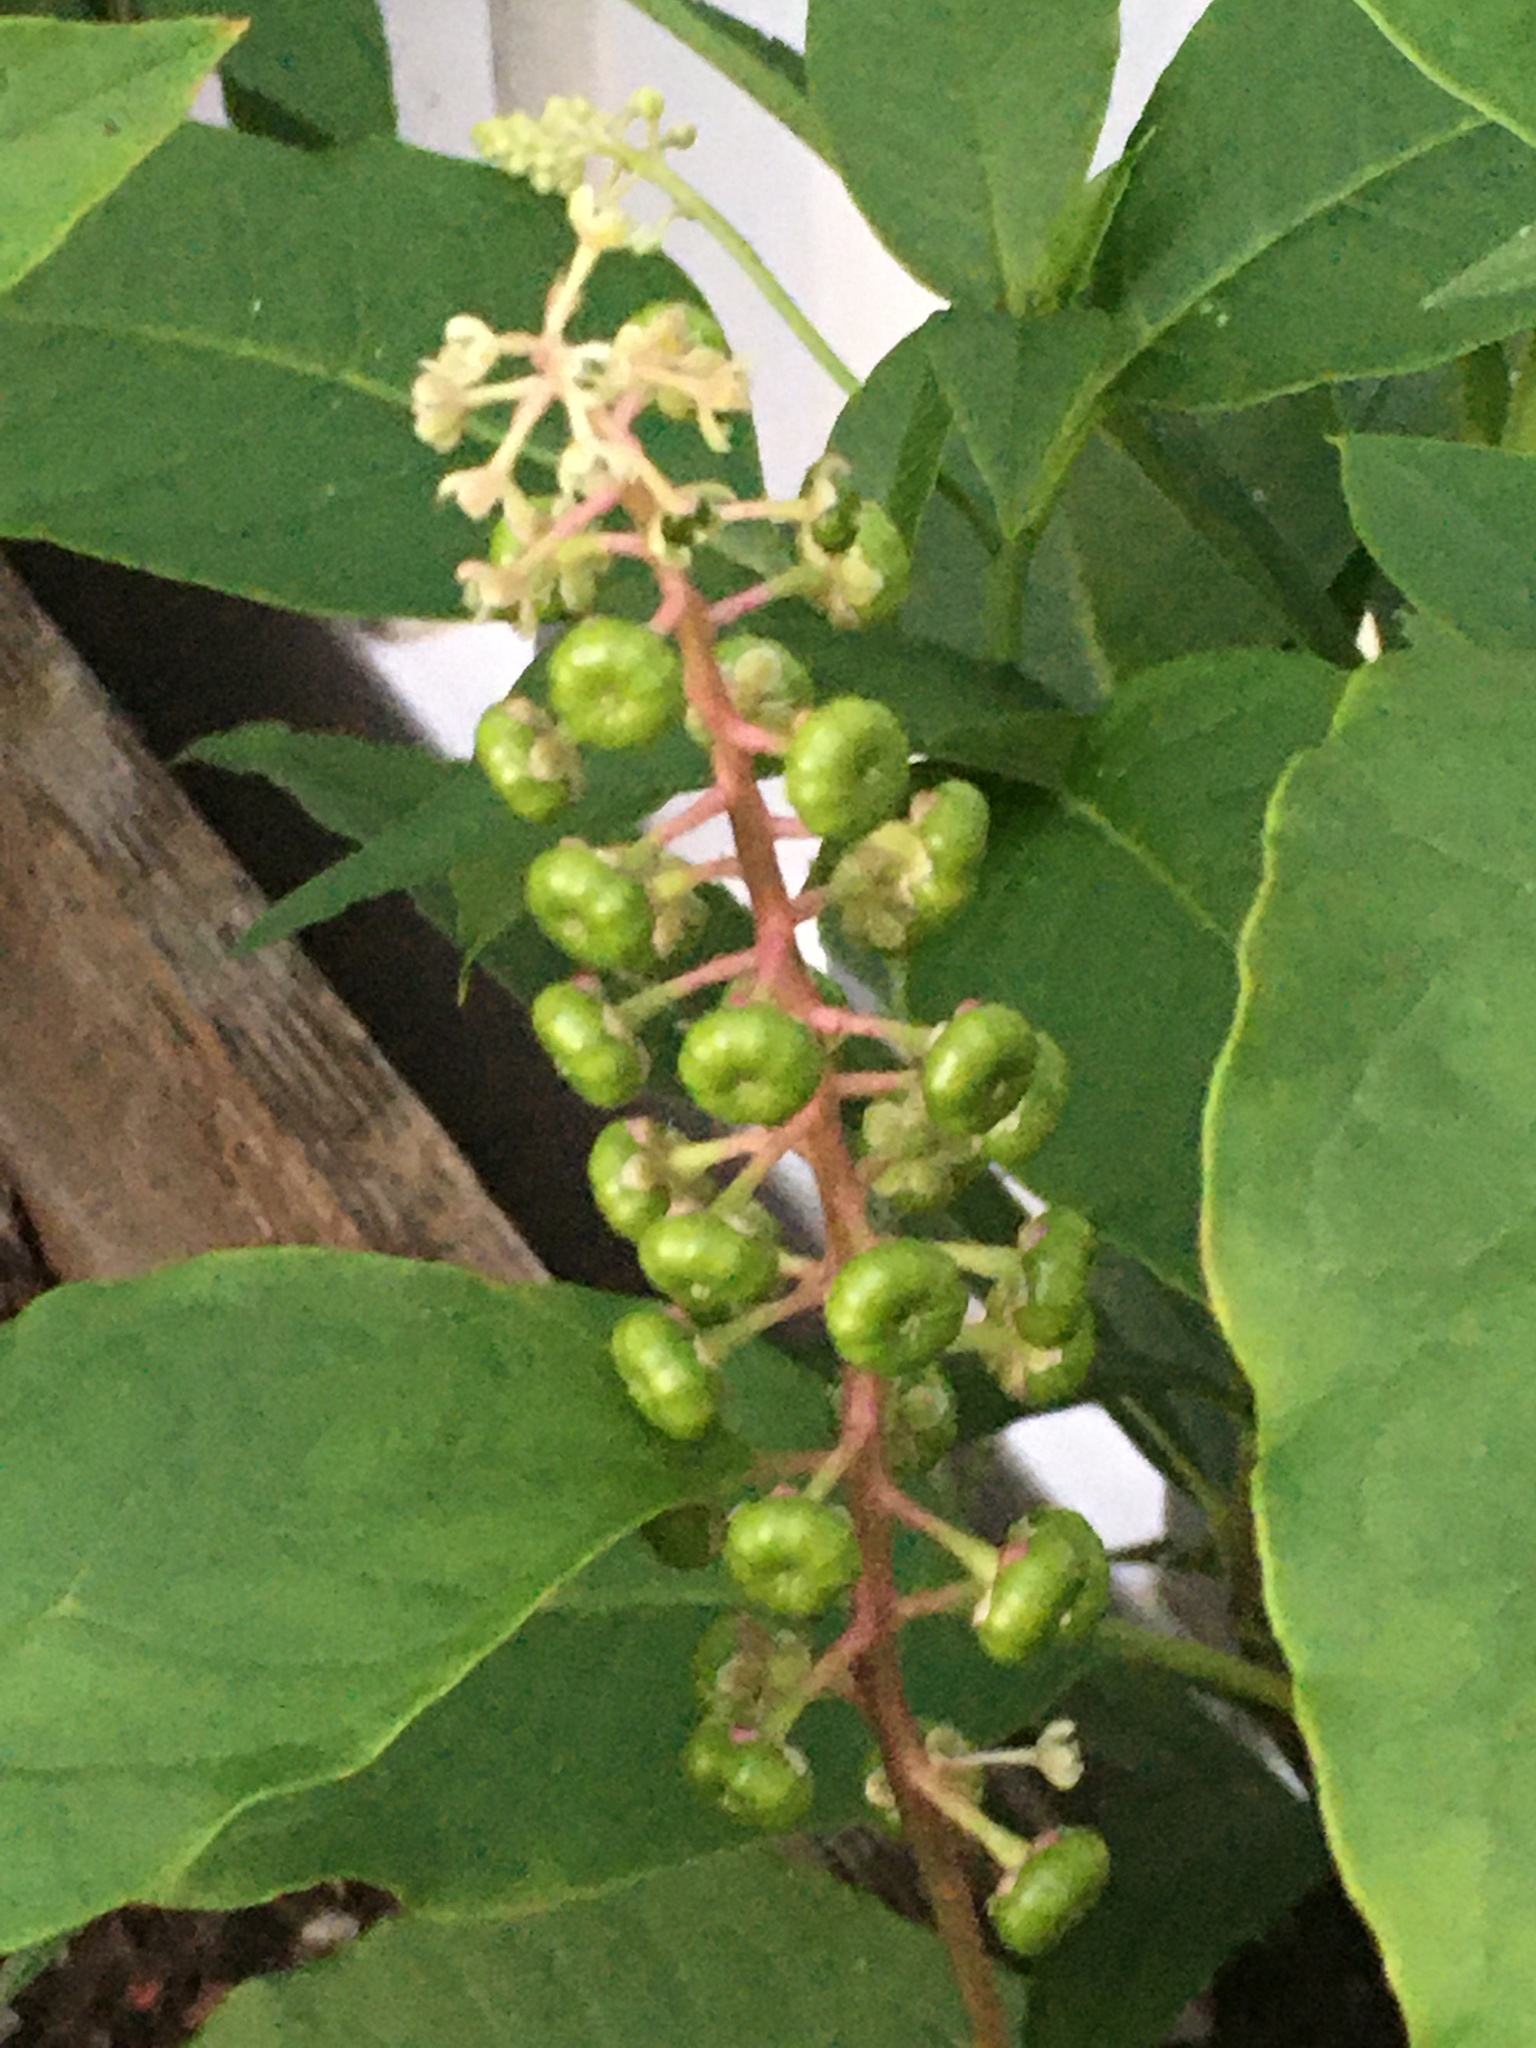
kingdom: Plantae
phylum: Tracheophyta
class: Magnoliopsida
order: Caryophyllales
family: Phytolaccaceae
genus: Phytolacca
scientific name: Phytolacca americana
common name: American pokeweed
